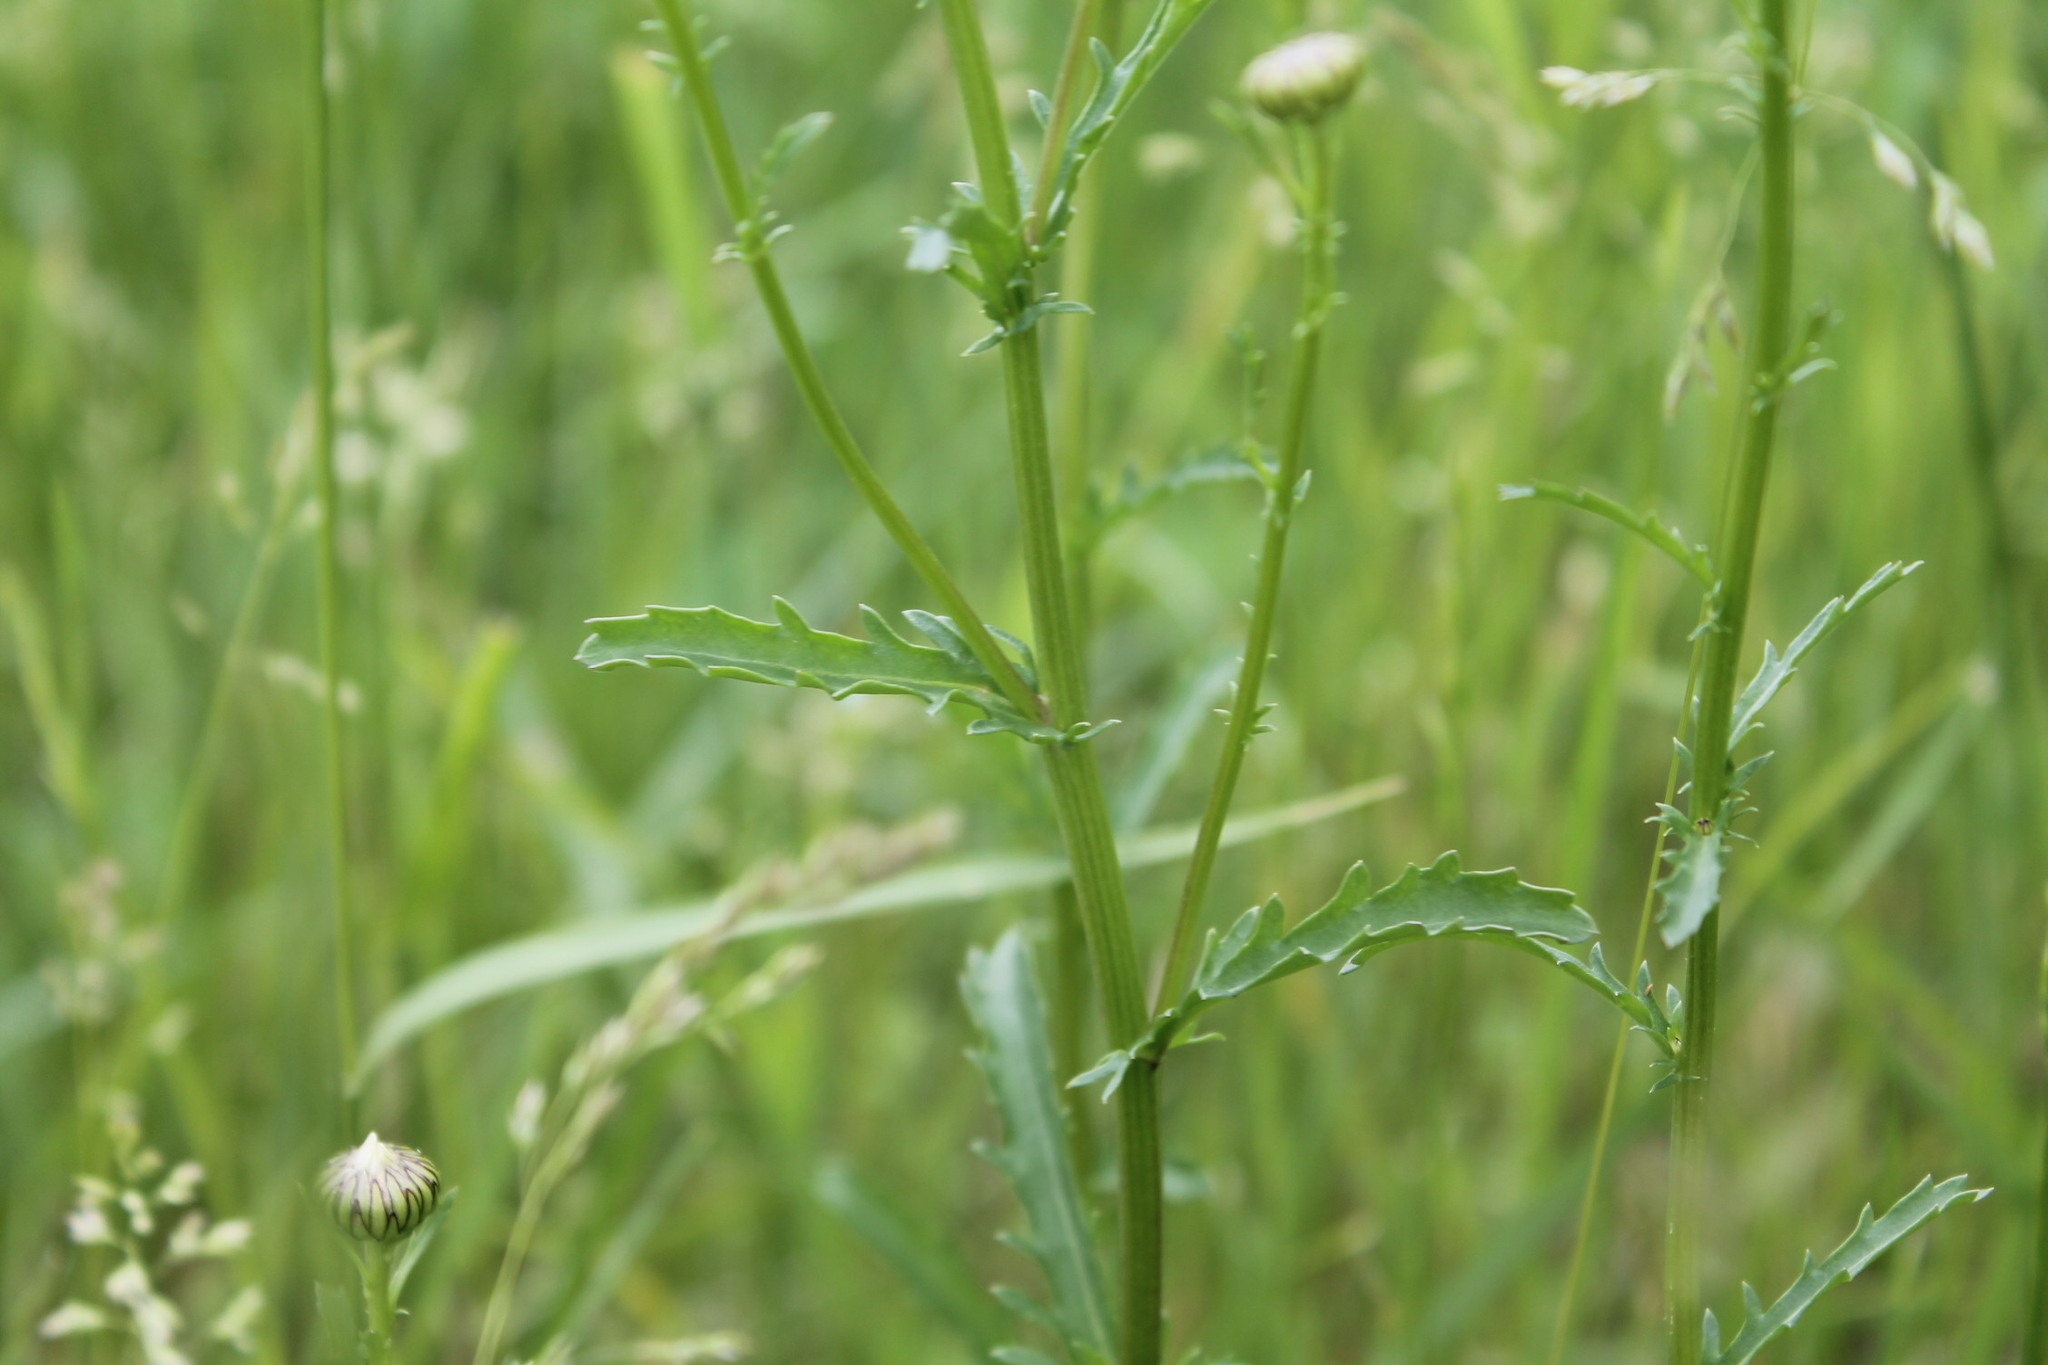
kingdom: Plantae
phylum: Tracheophyta
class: Magnoliopsida
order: Asterales
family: Asteraceae
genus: Leucanthemum
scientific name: Leucanthemum vulgare
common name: Oxeye daisy
